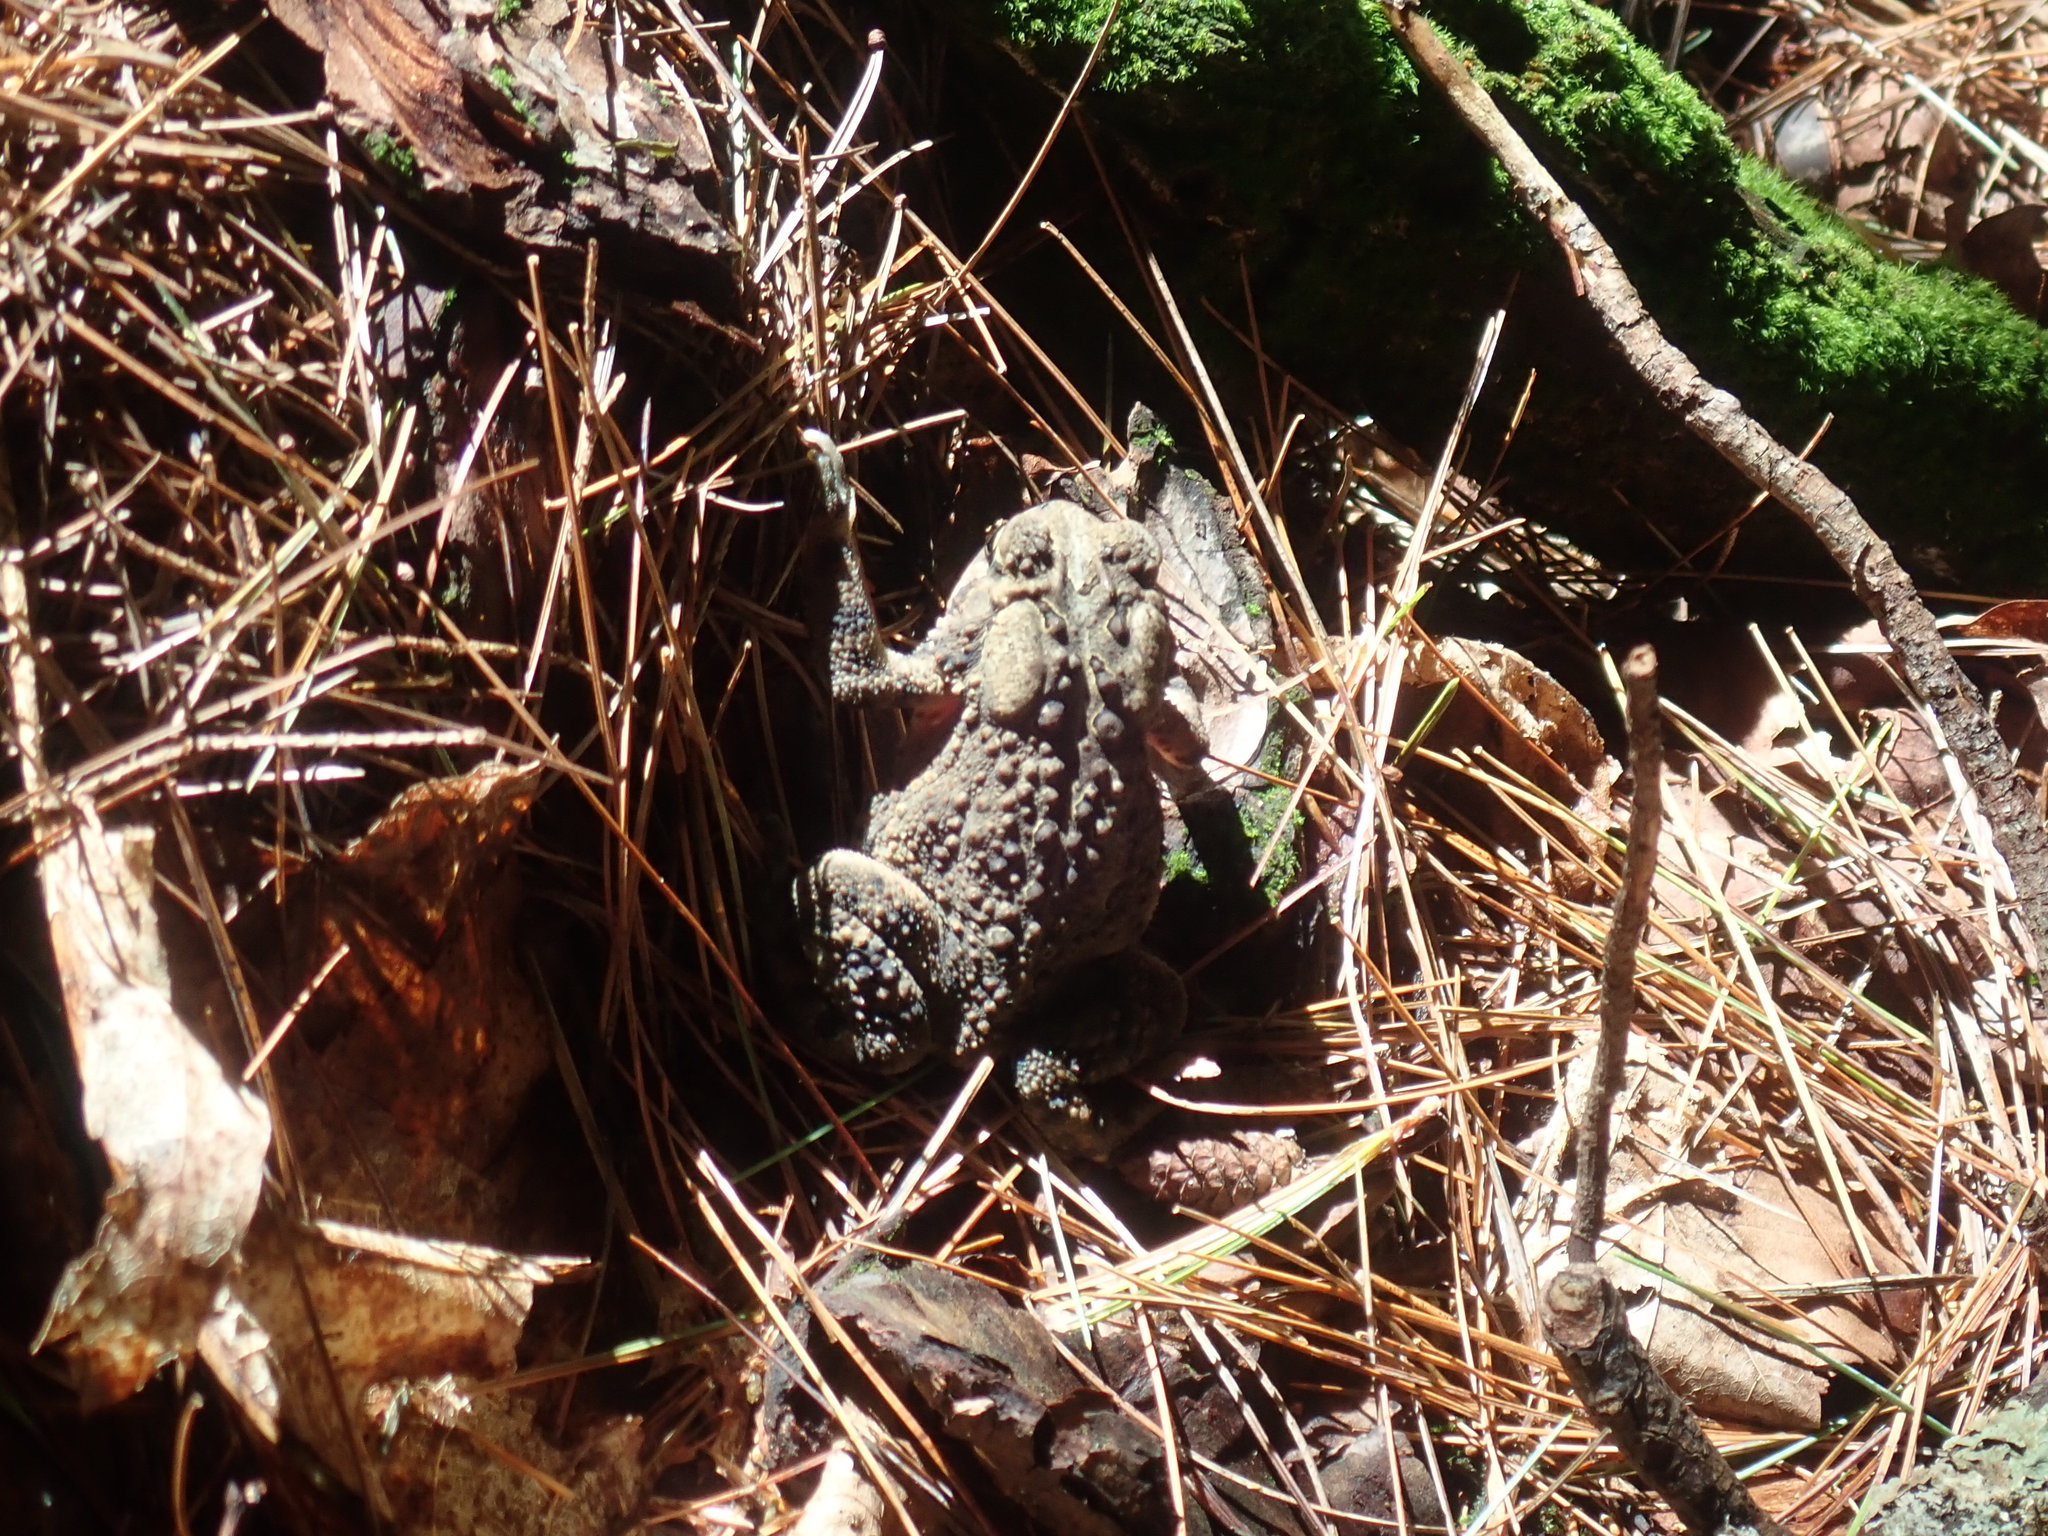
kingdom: Animalia
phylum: Chordata
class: Amphibia
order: Anura
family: Bufonidae
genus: Anaxyrus
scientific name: Anaxyrus americanus
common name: American toad
